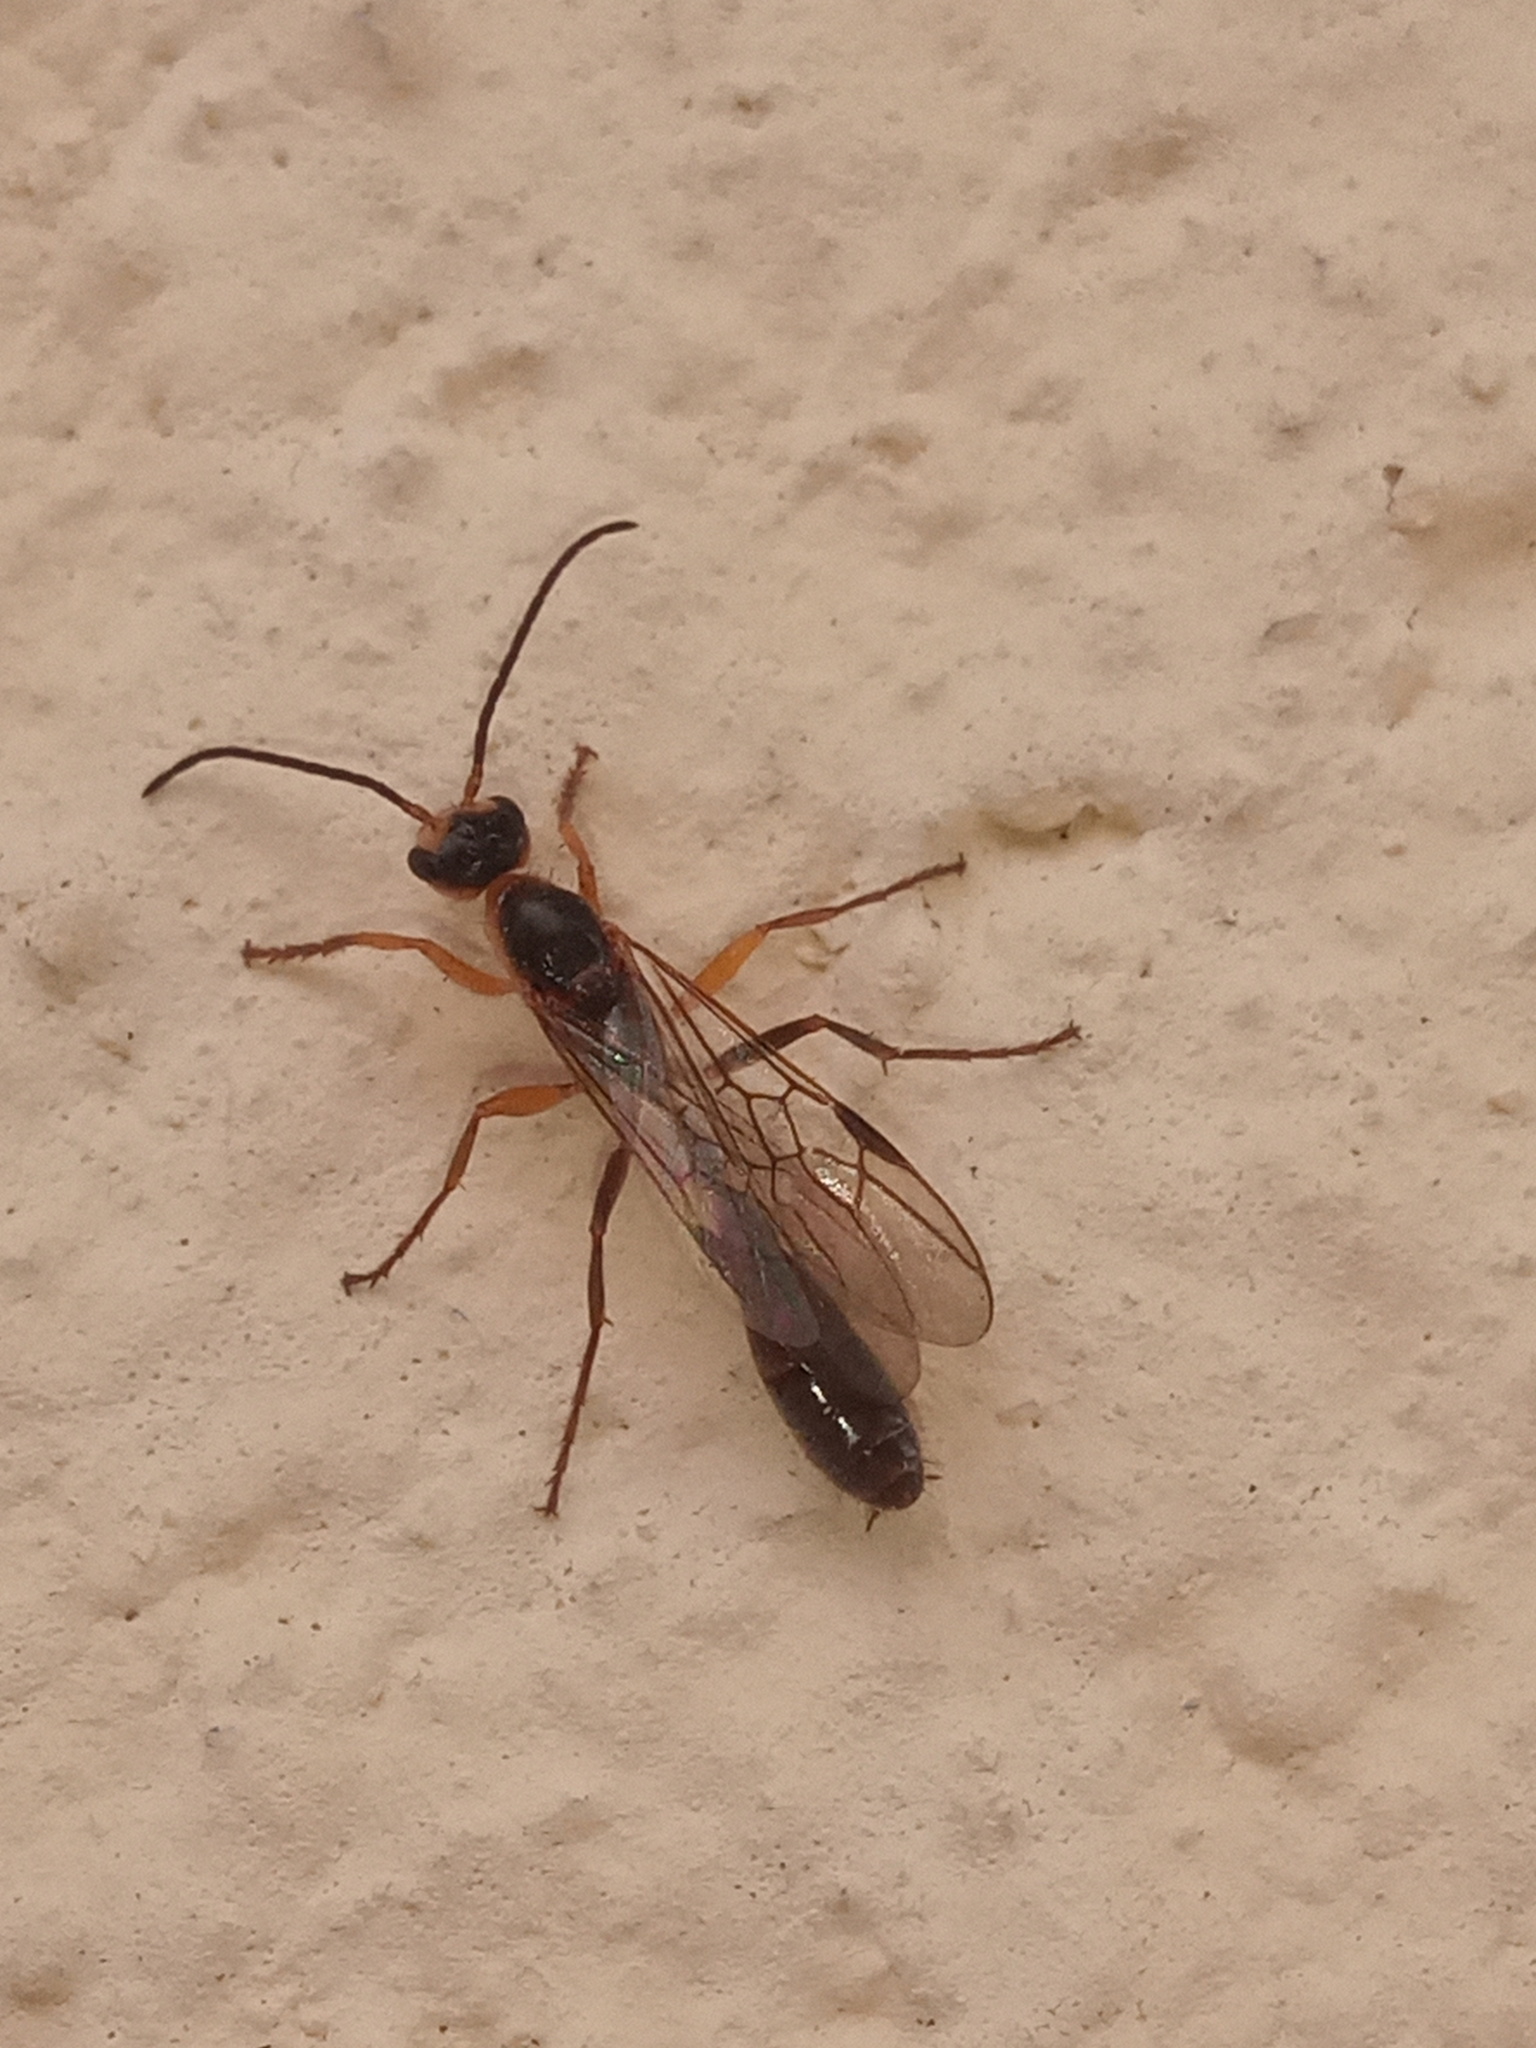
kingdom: Animalia
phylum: Arthropoda
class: Insecta
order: Hymenoptera
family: Formicidae
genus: Pseudomyrmex
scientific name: Pseudomyrmex gracilis
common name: Graceful twig ant
